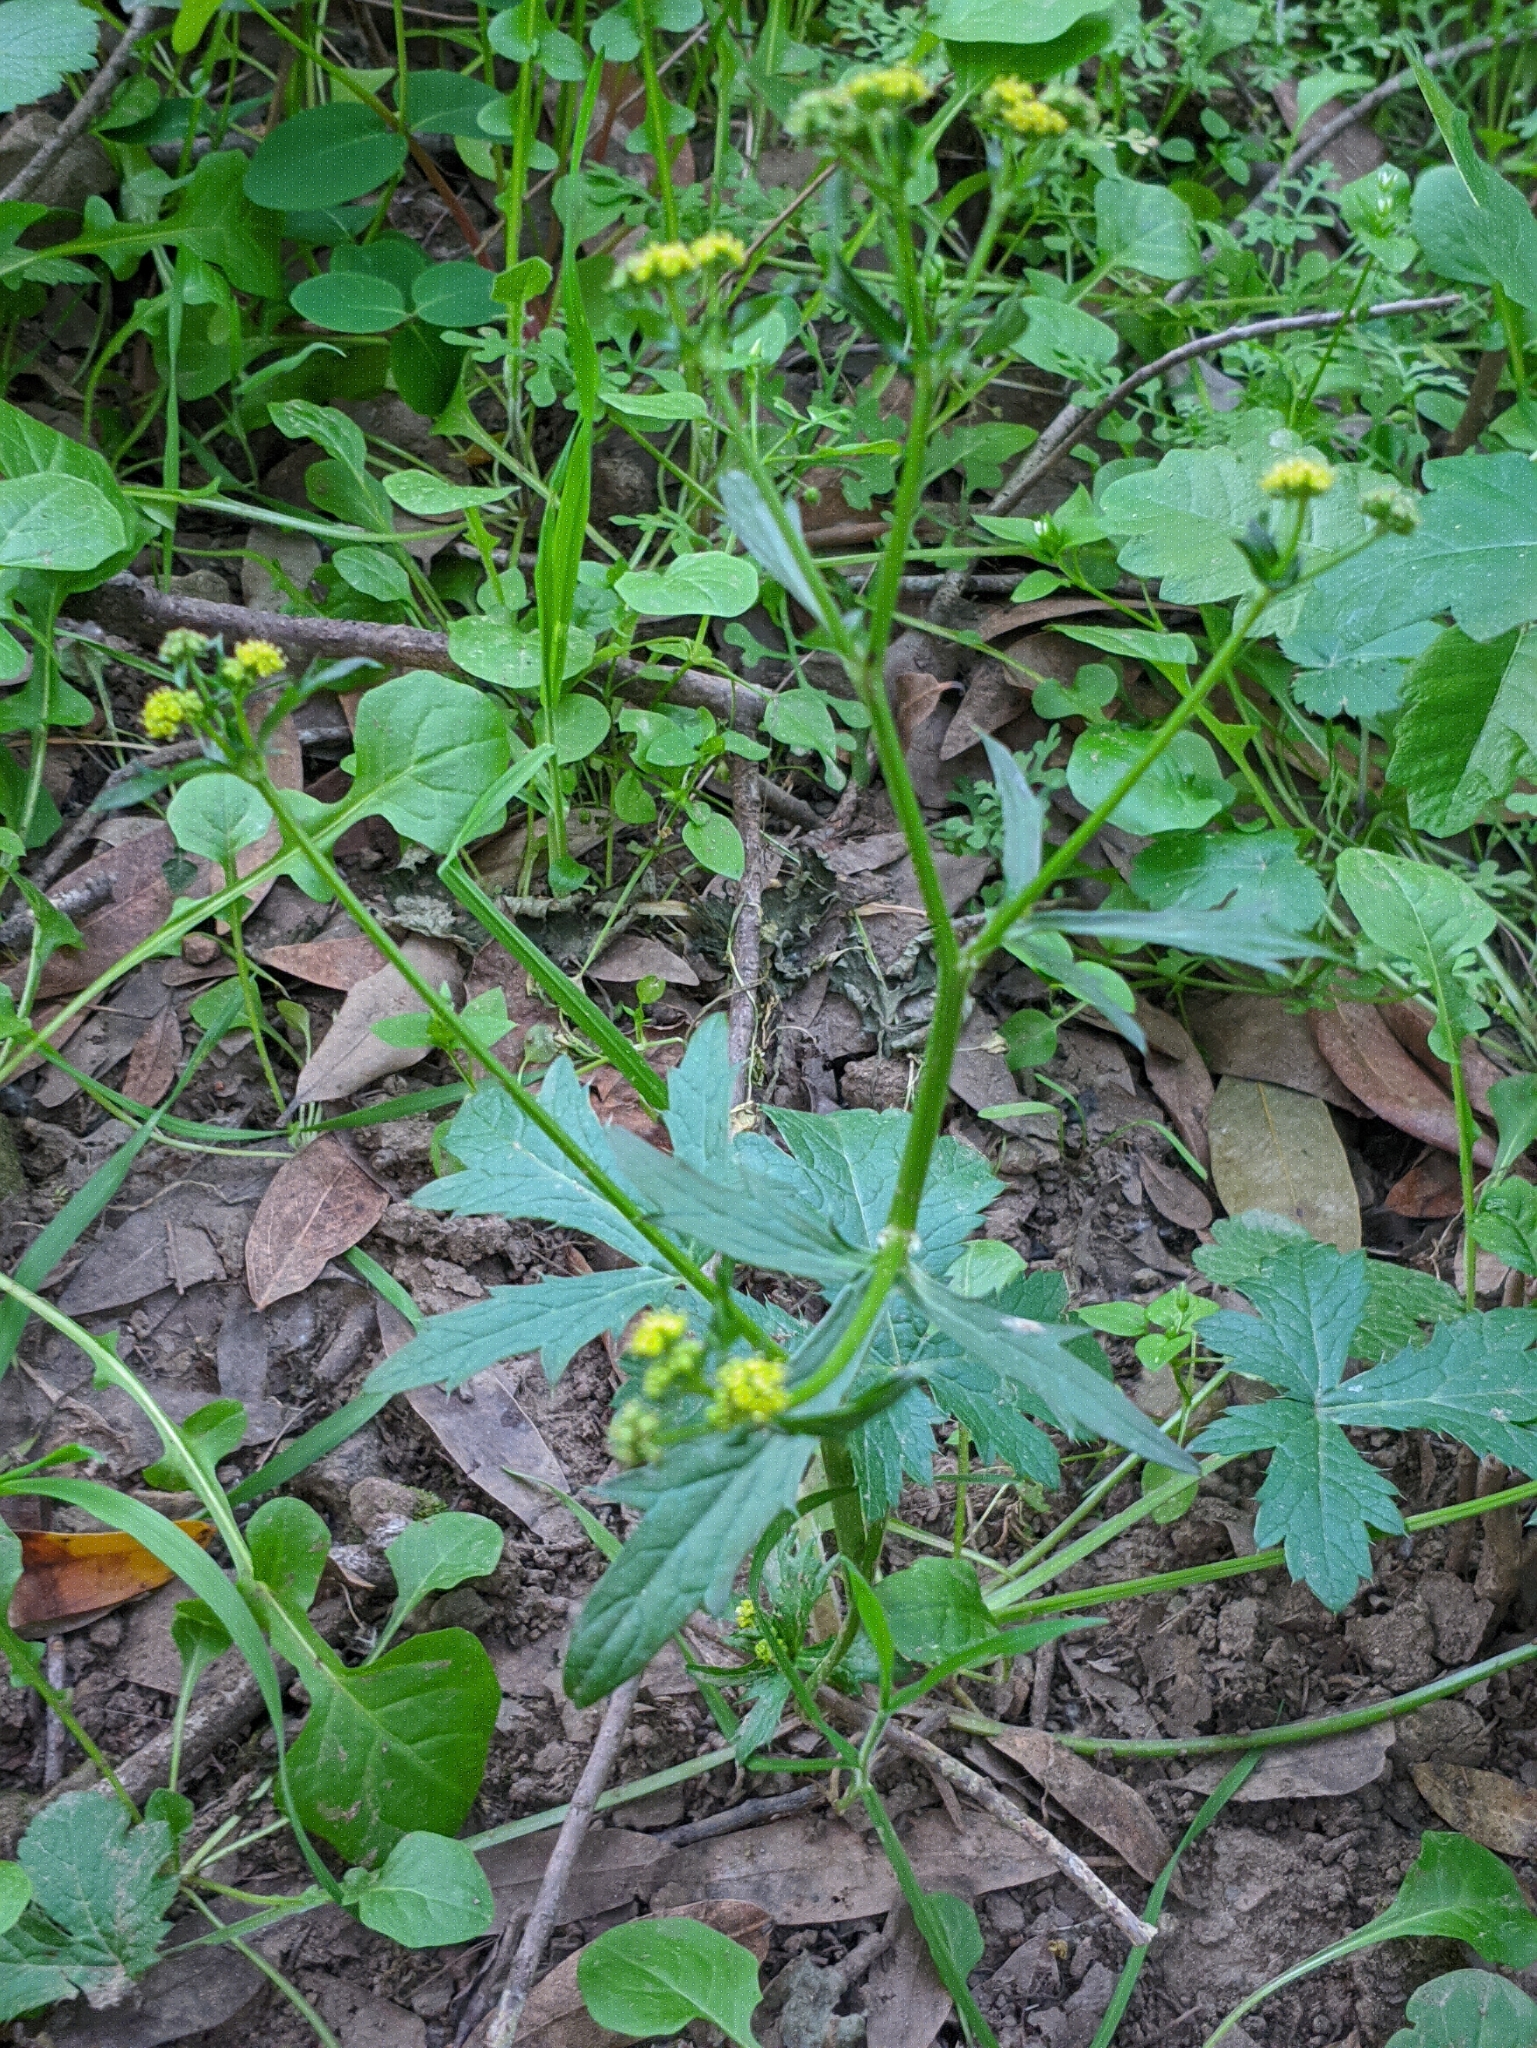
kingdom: Plantae
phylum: Tracheophyta
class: Magnoliopsida
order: Apiales
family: Apiaceae
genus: Sanicula
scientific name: Sanicula crassicaulis
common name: Western snakeroot
